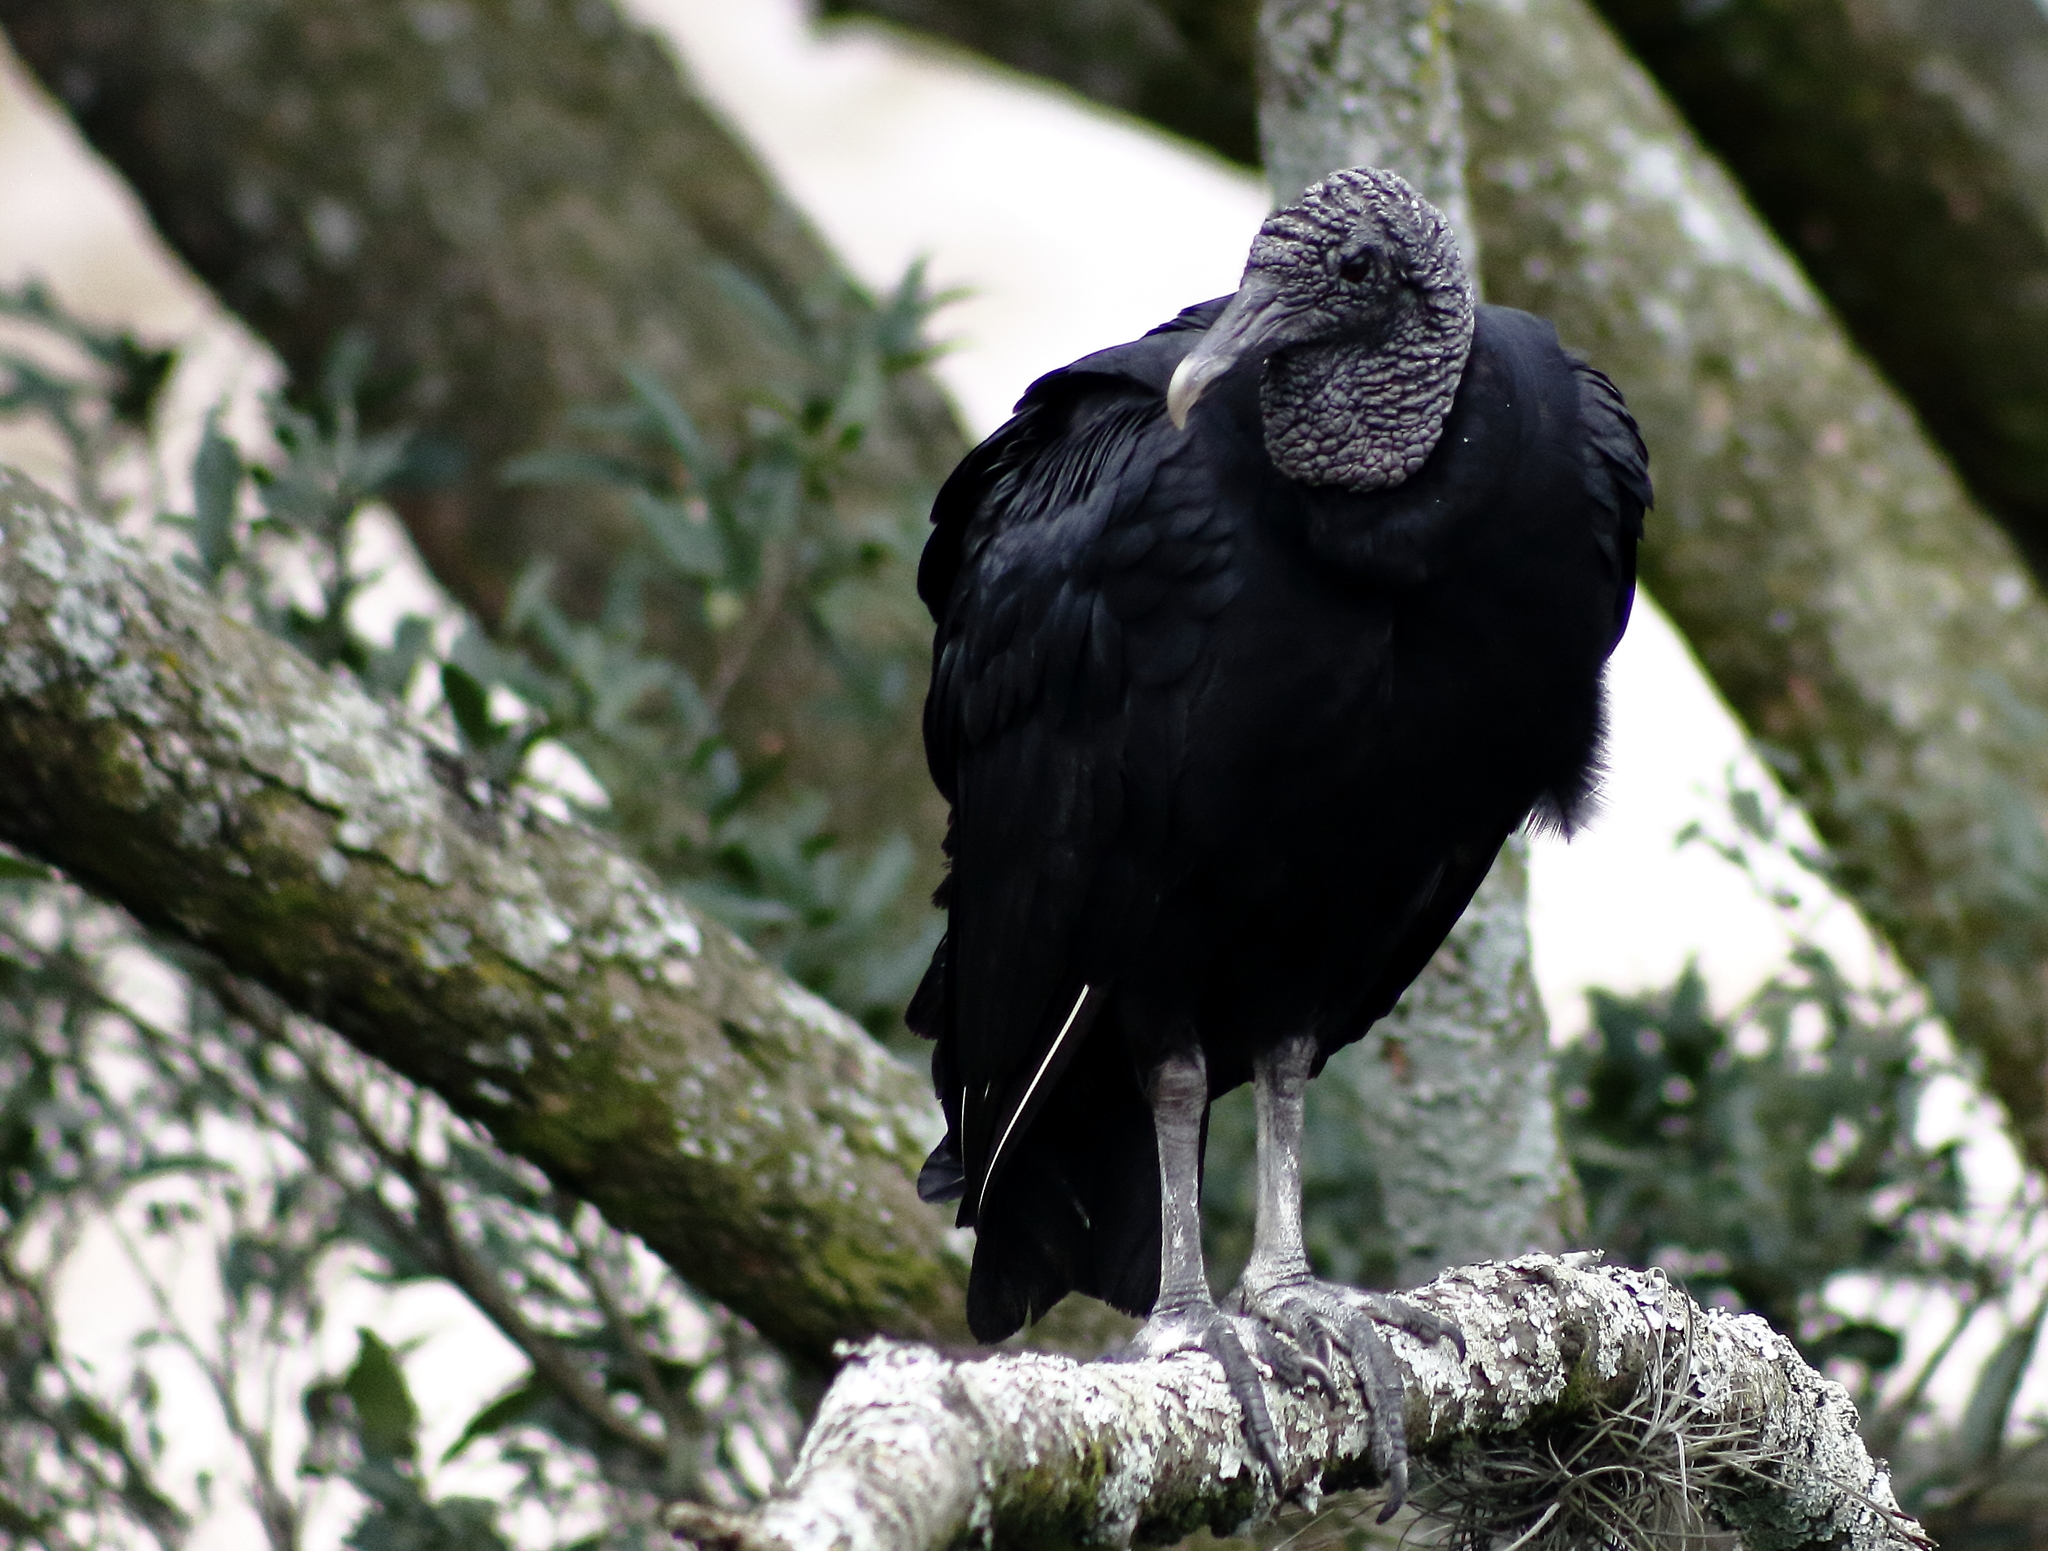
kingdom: Animalia
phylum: Chordata
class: Aves
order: Accipitriformes
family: Cathartidae
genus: Coragyps
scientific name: Coragyps atratus
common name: Black vulture
